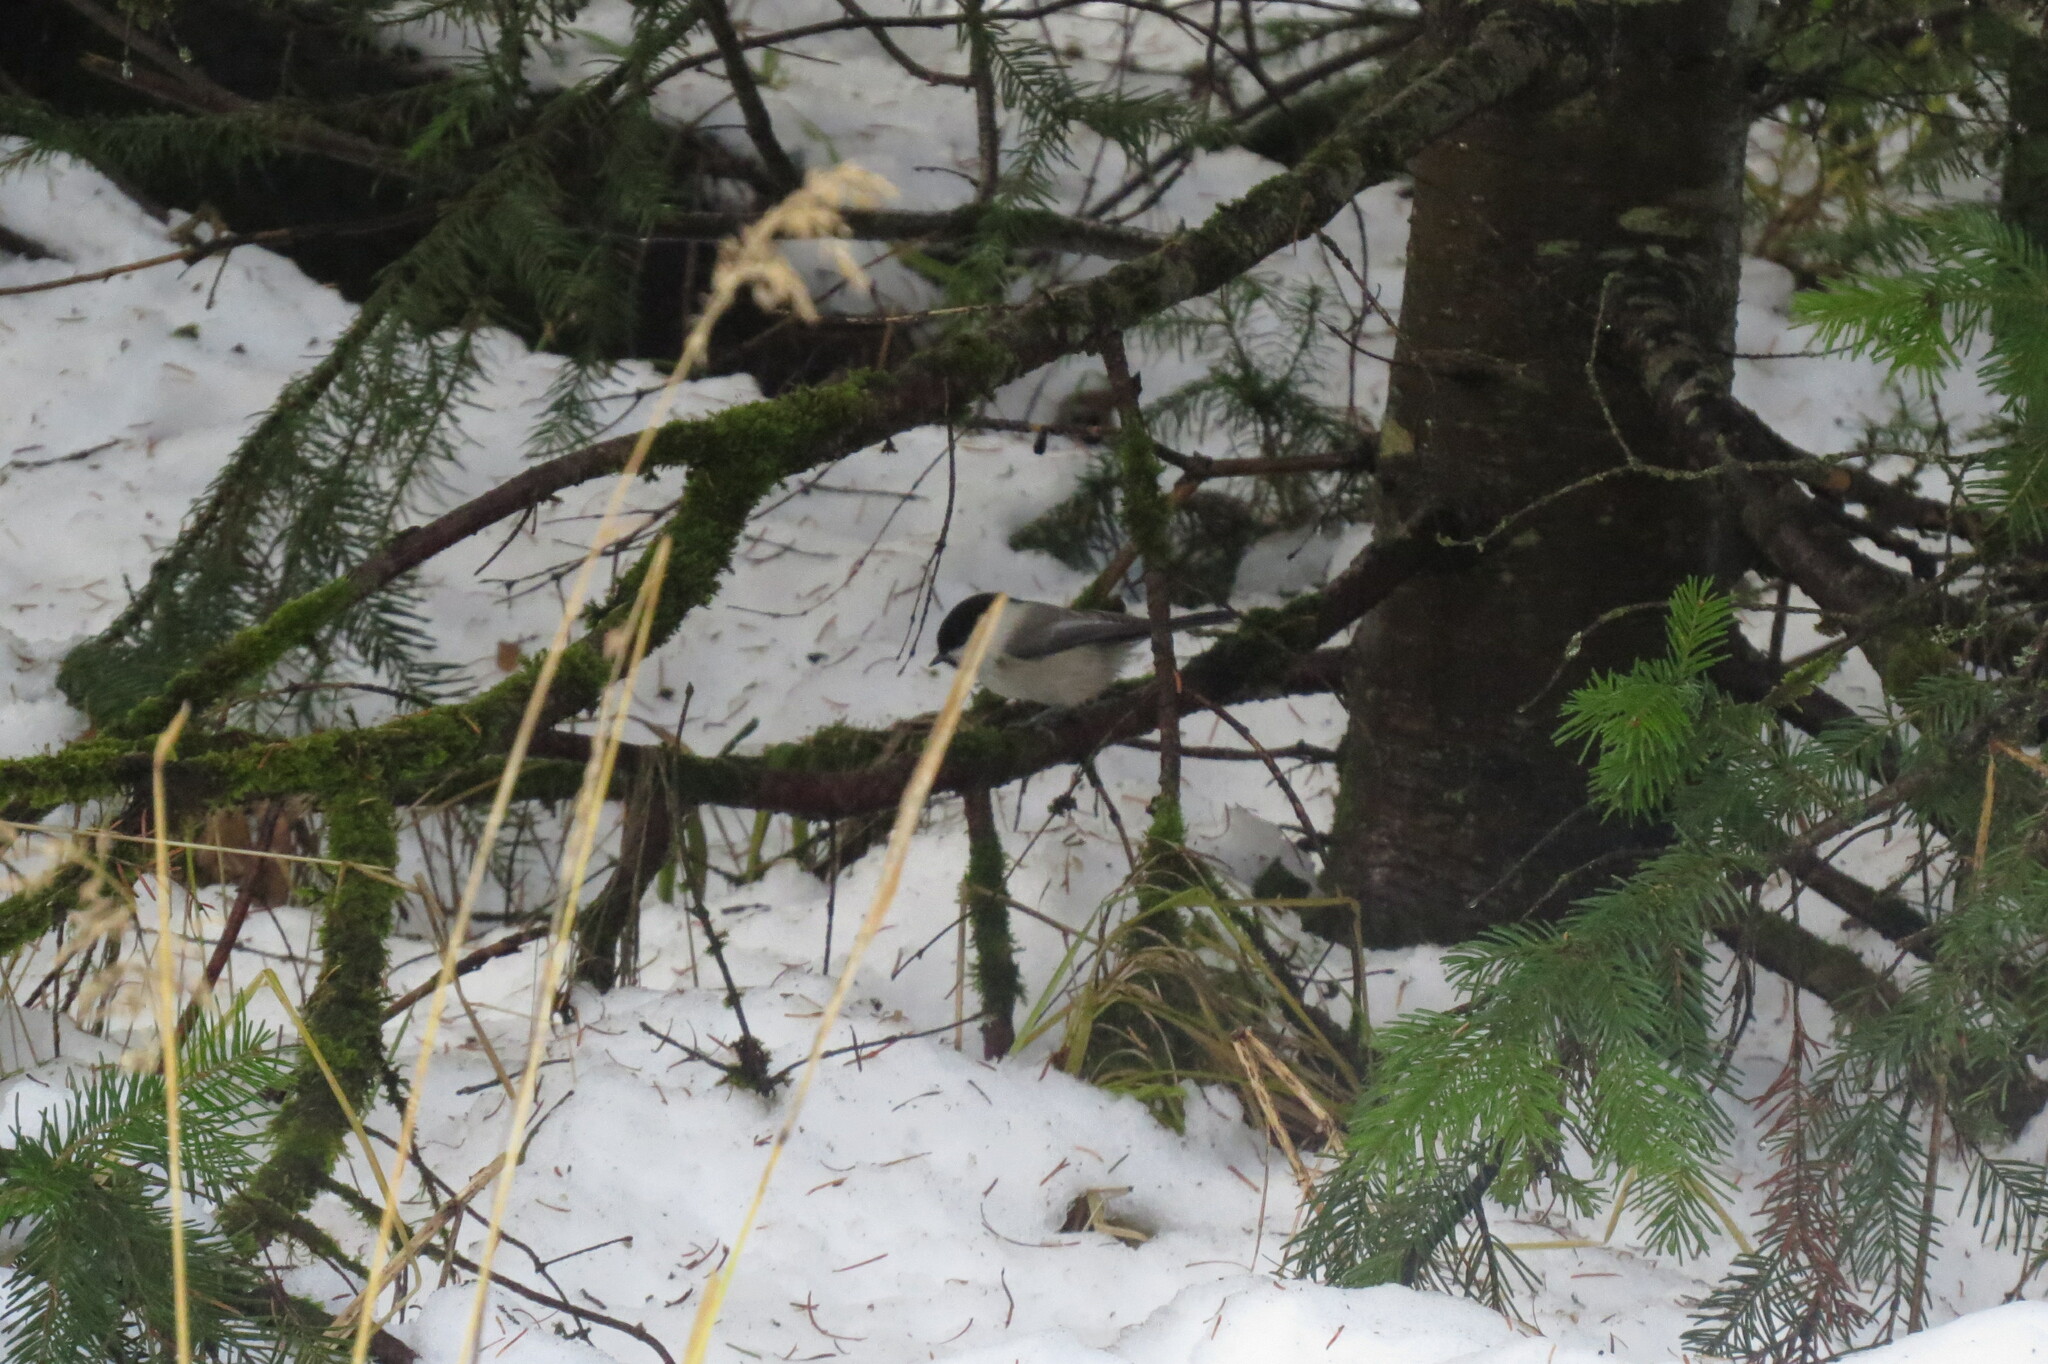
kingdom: Animalia
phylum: Chordata
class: Aves
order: Passeriformes
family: Paridae
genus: Poecile
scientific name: Poecile montanus
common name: Willow tit
